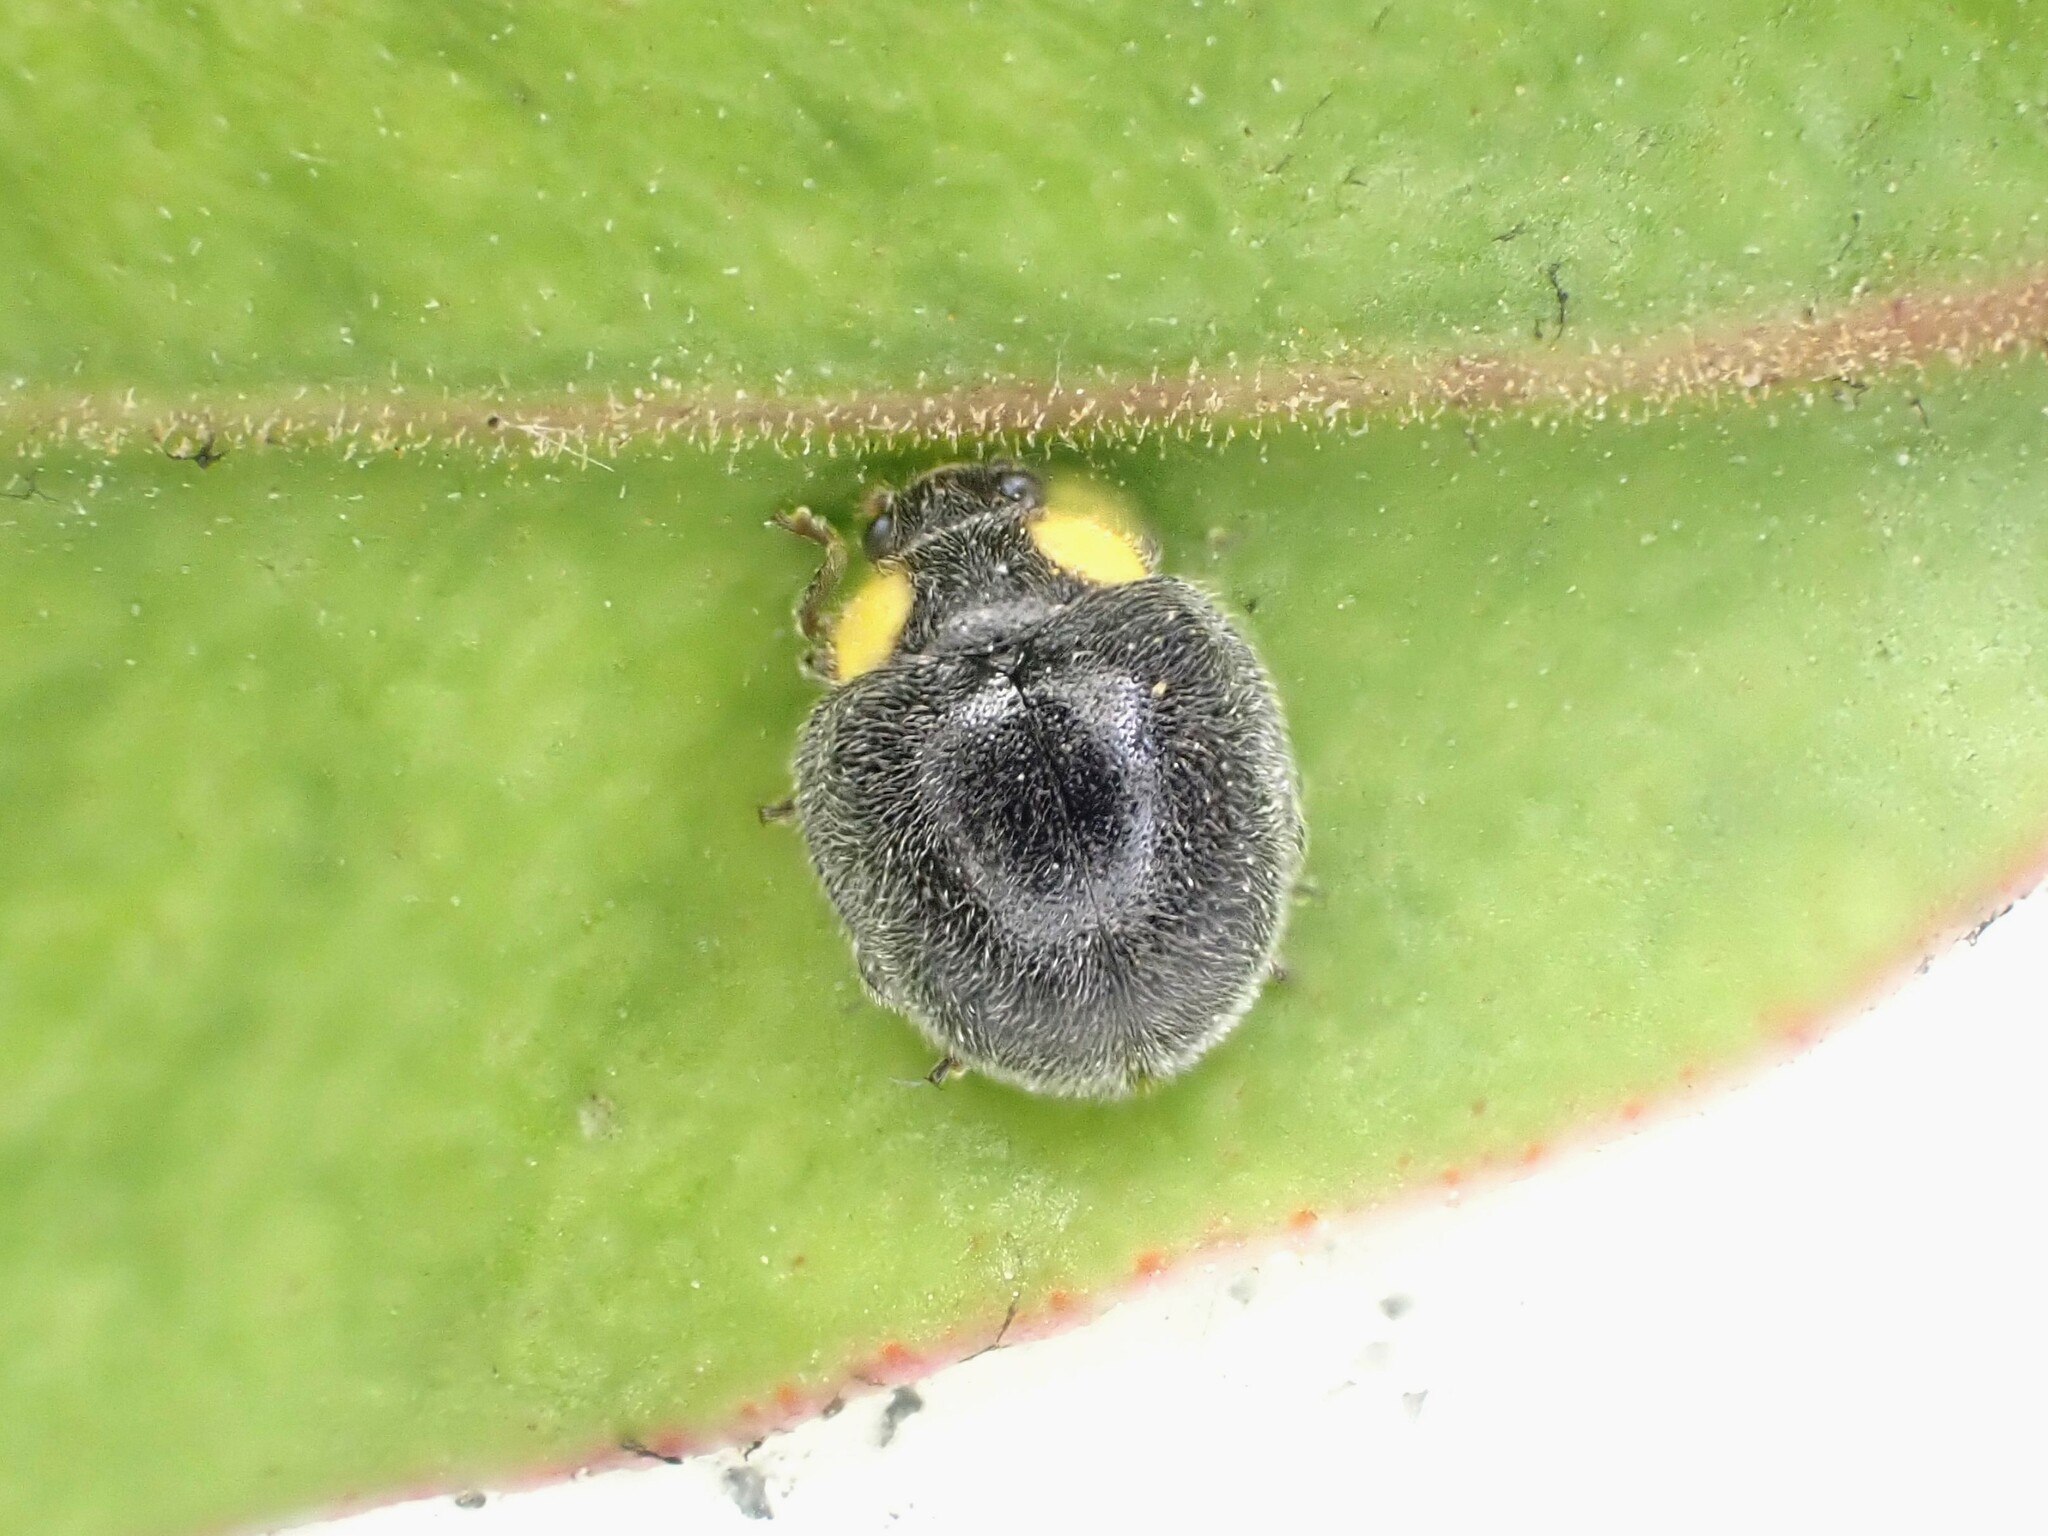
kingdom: Animalia
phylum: Arthropoda
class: Insecta
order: Coleoptera
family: Coccinellidae
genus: Scymnodes
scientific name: Scymnodes lividigaster
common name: Yellowshouldered lady beetle
